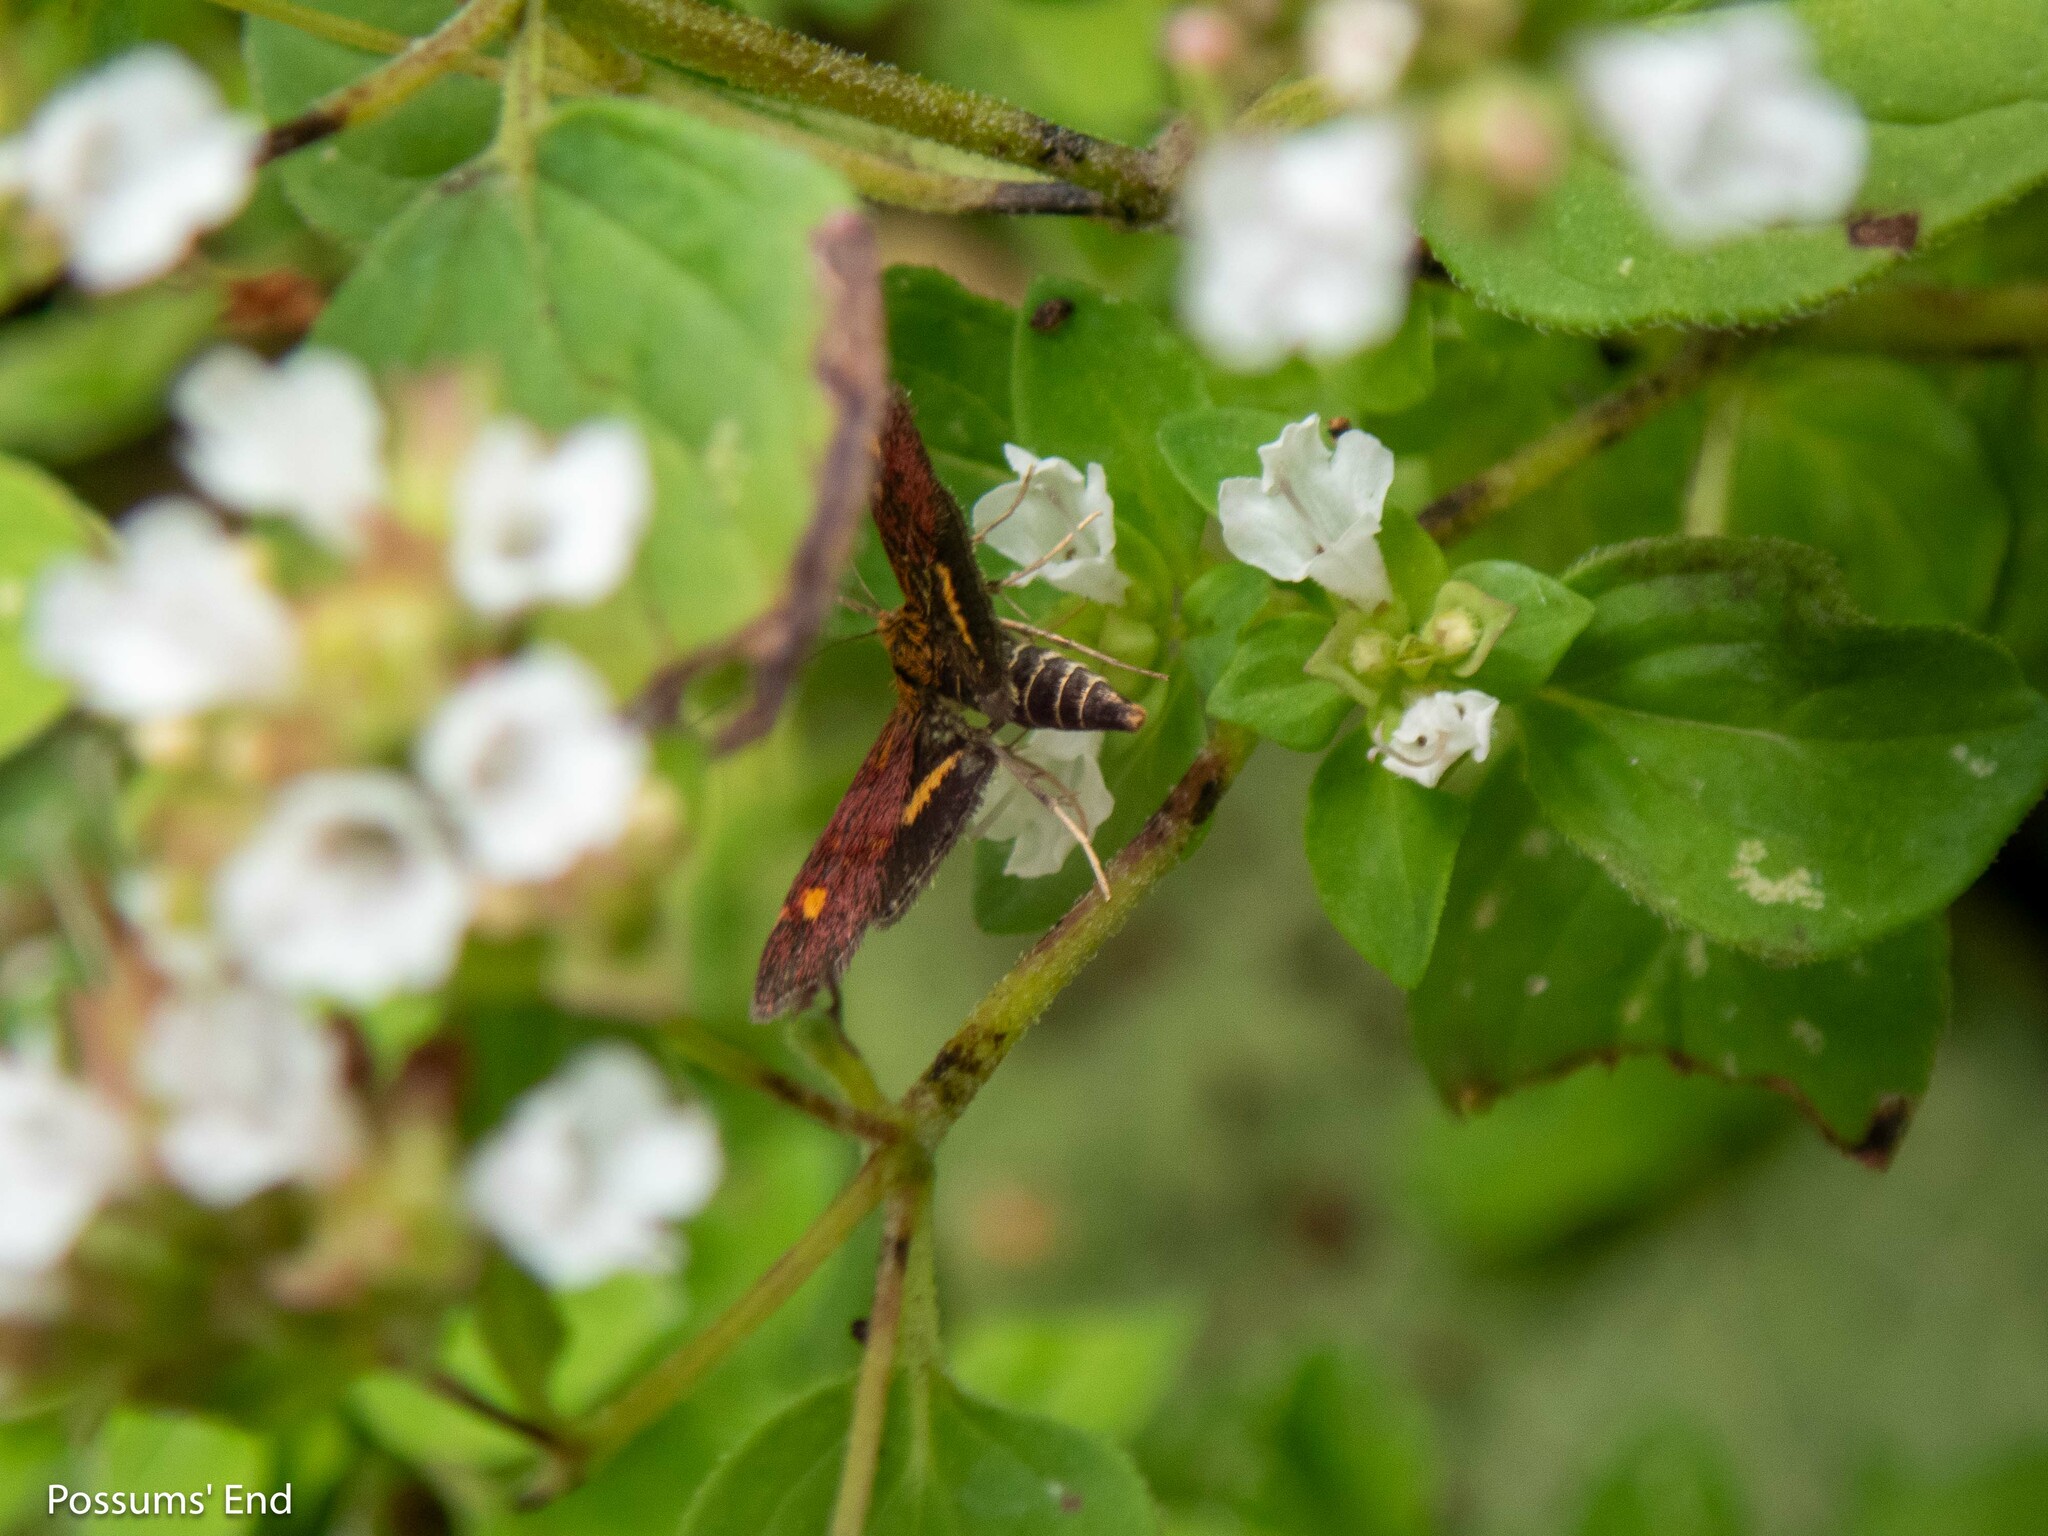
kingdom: Animalia
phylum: Arthropoda
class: Insecta
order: Lepidoptera
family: Crambidae
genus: Pyrausta
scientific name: Pyrausta aurata
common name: Small purple & gold
